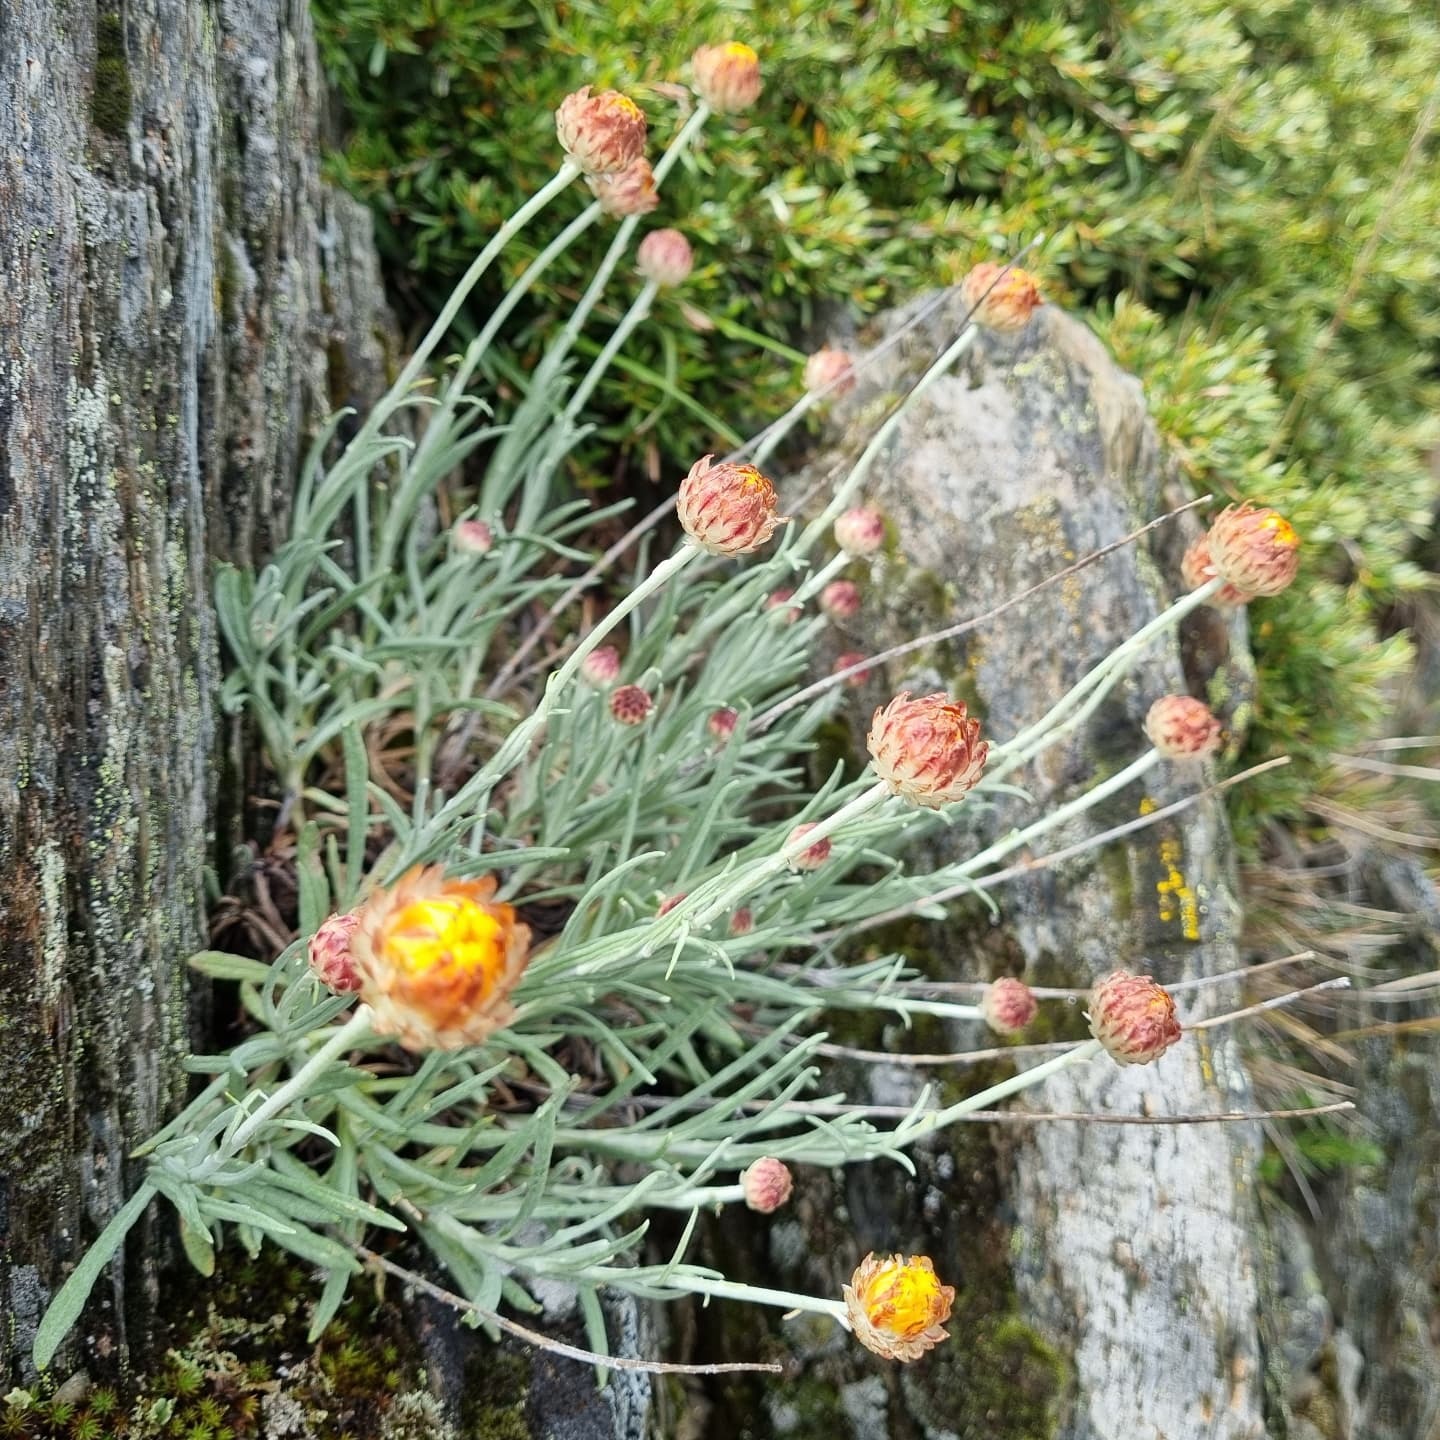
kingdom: Plantae
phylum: Tracheophyta
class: Magnoliopsida
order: Asterales
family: Asteraceae
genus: Leucochrysum
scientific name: Leucochrysum albicans
